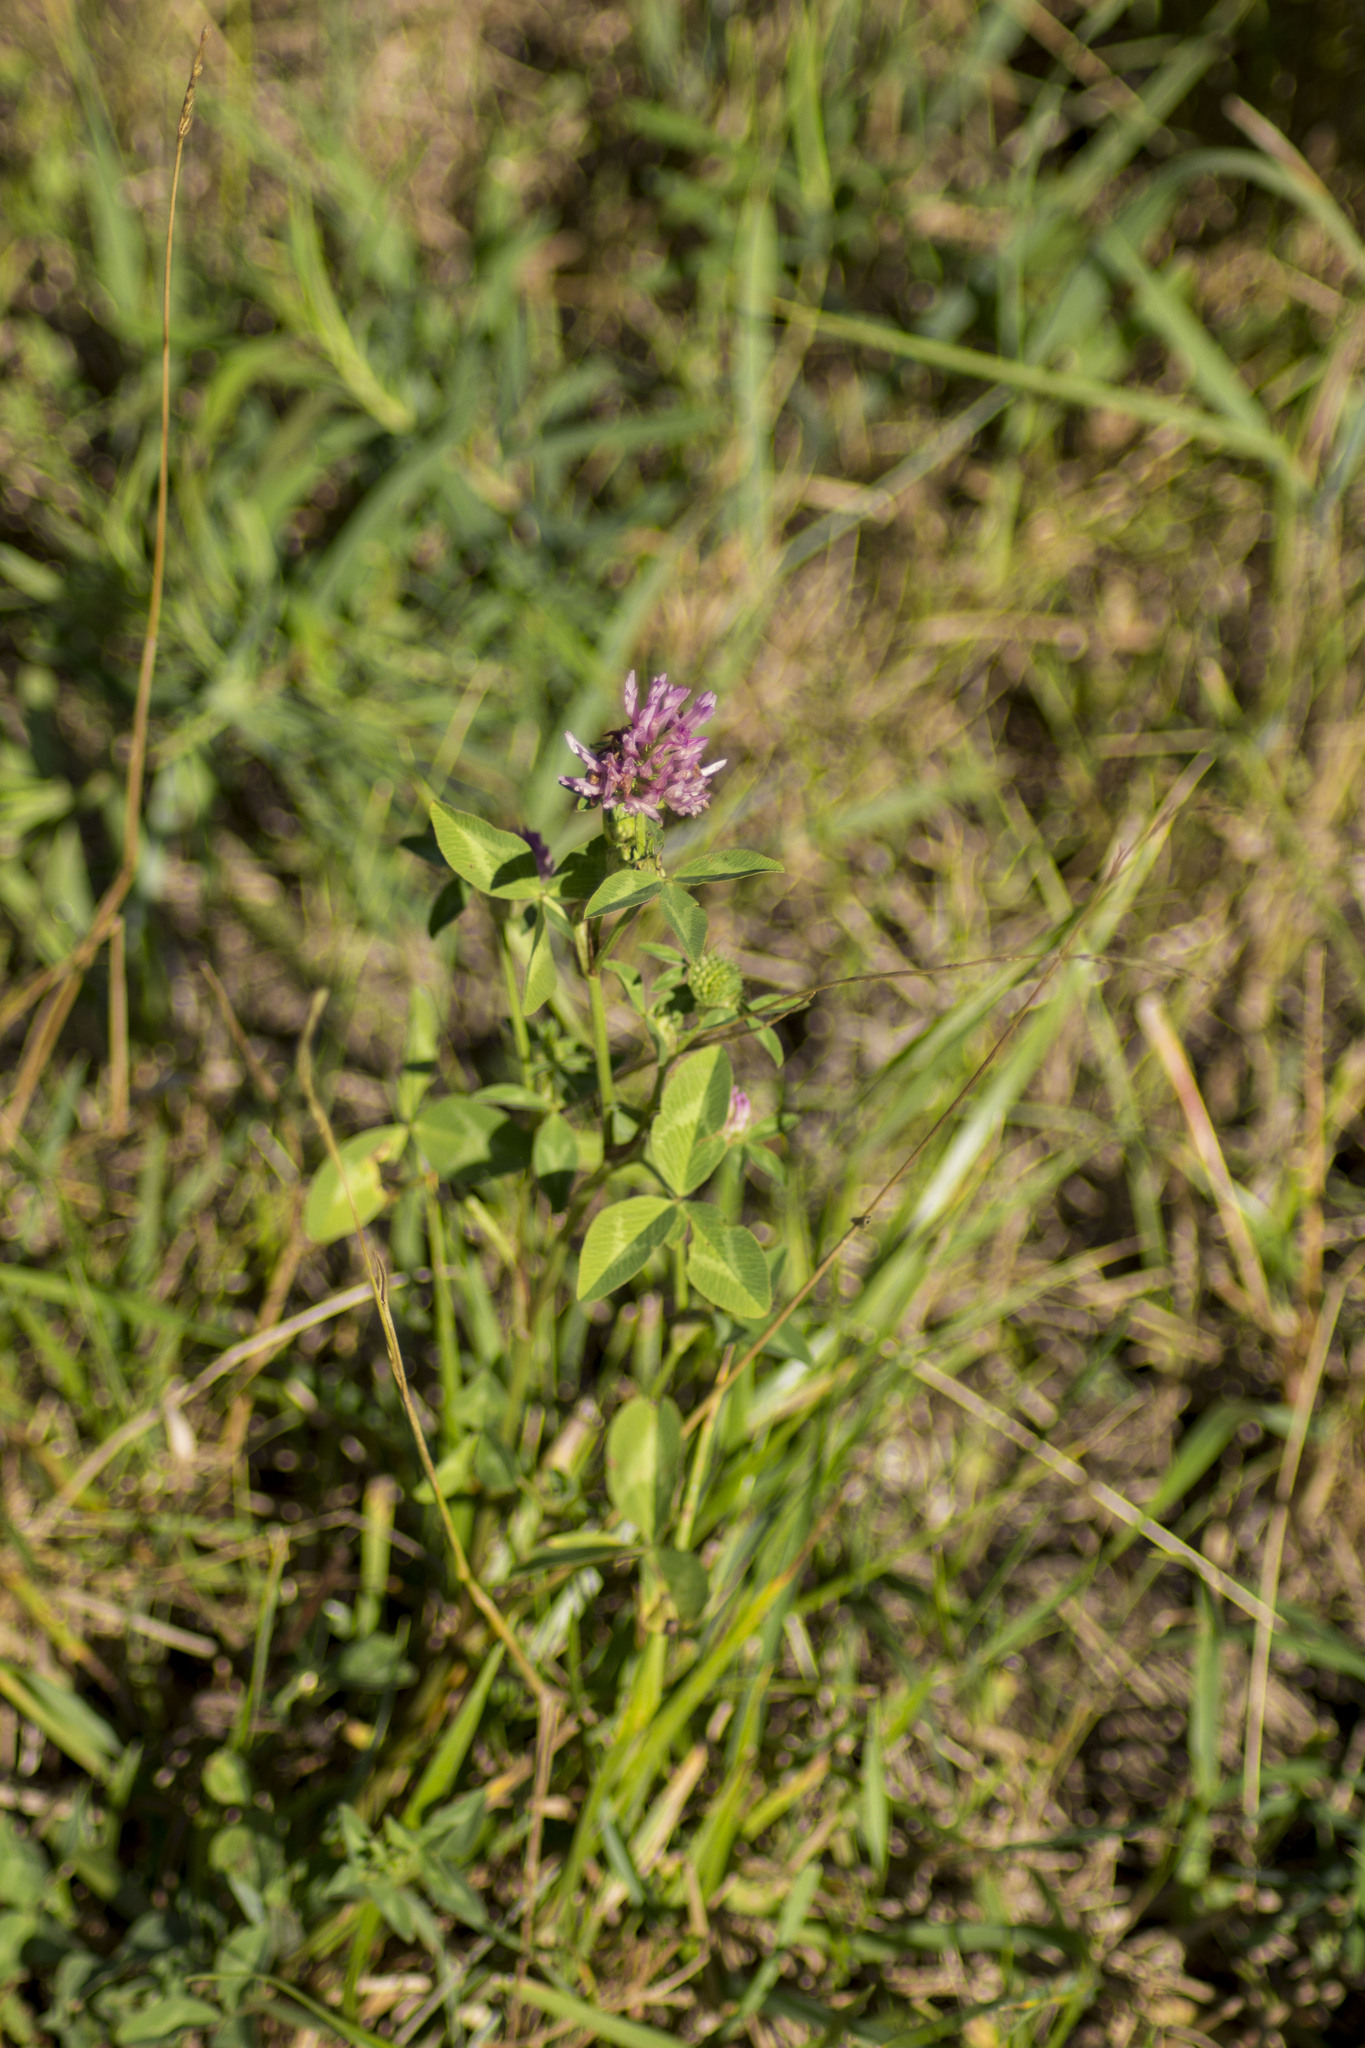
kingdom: Plantae
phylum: Tracheophyta
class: Magnoliopsida
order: Fabales
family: Fabaceae
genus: Trifolium
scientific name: Trifolium pratense
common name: Red clover
